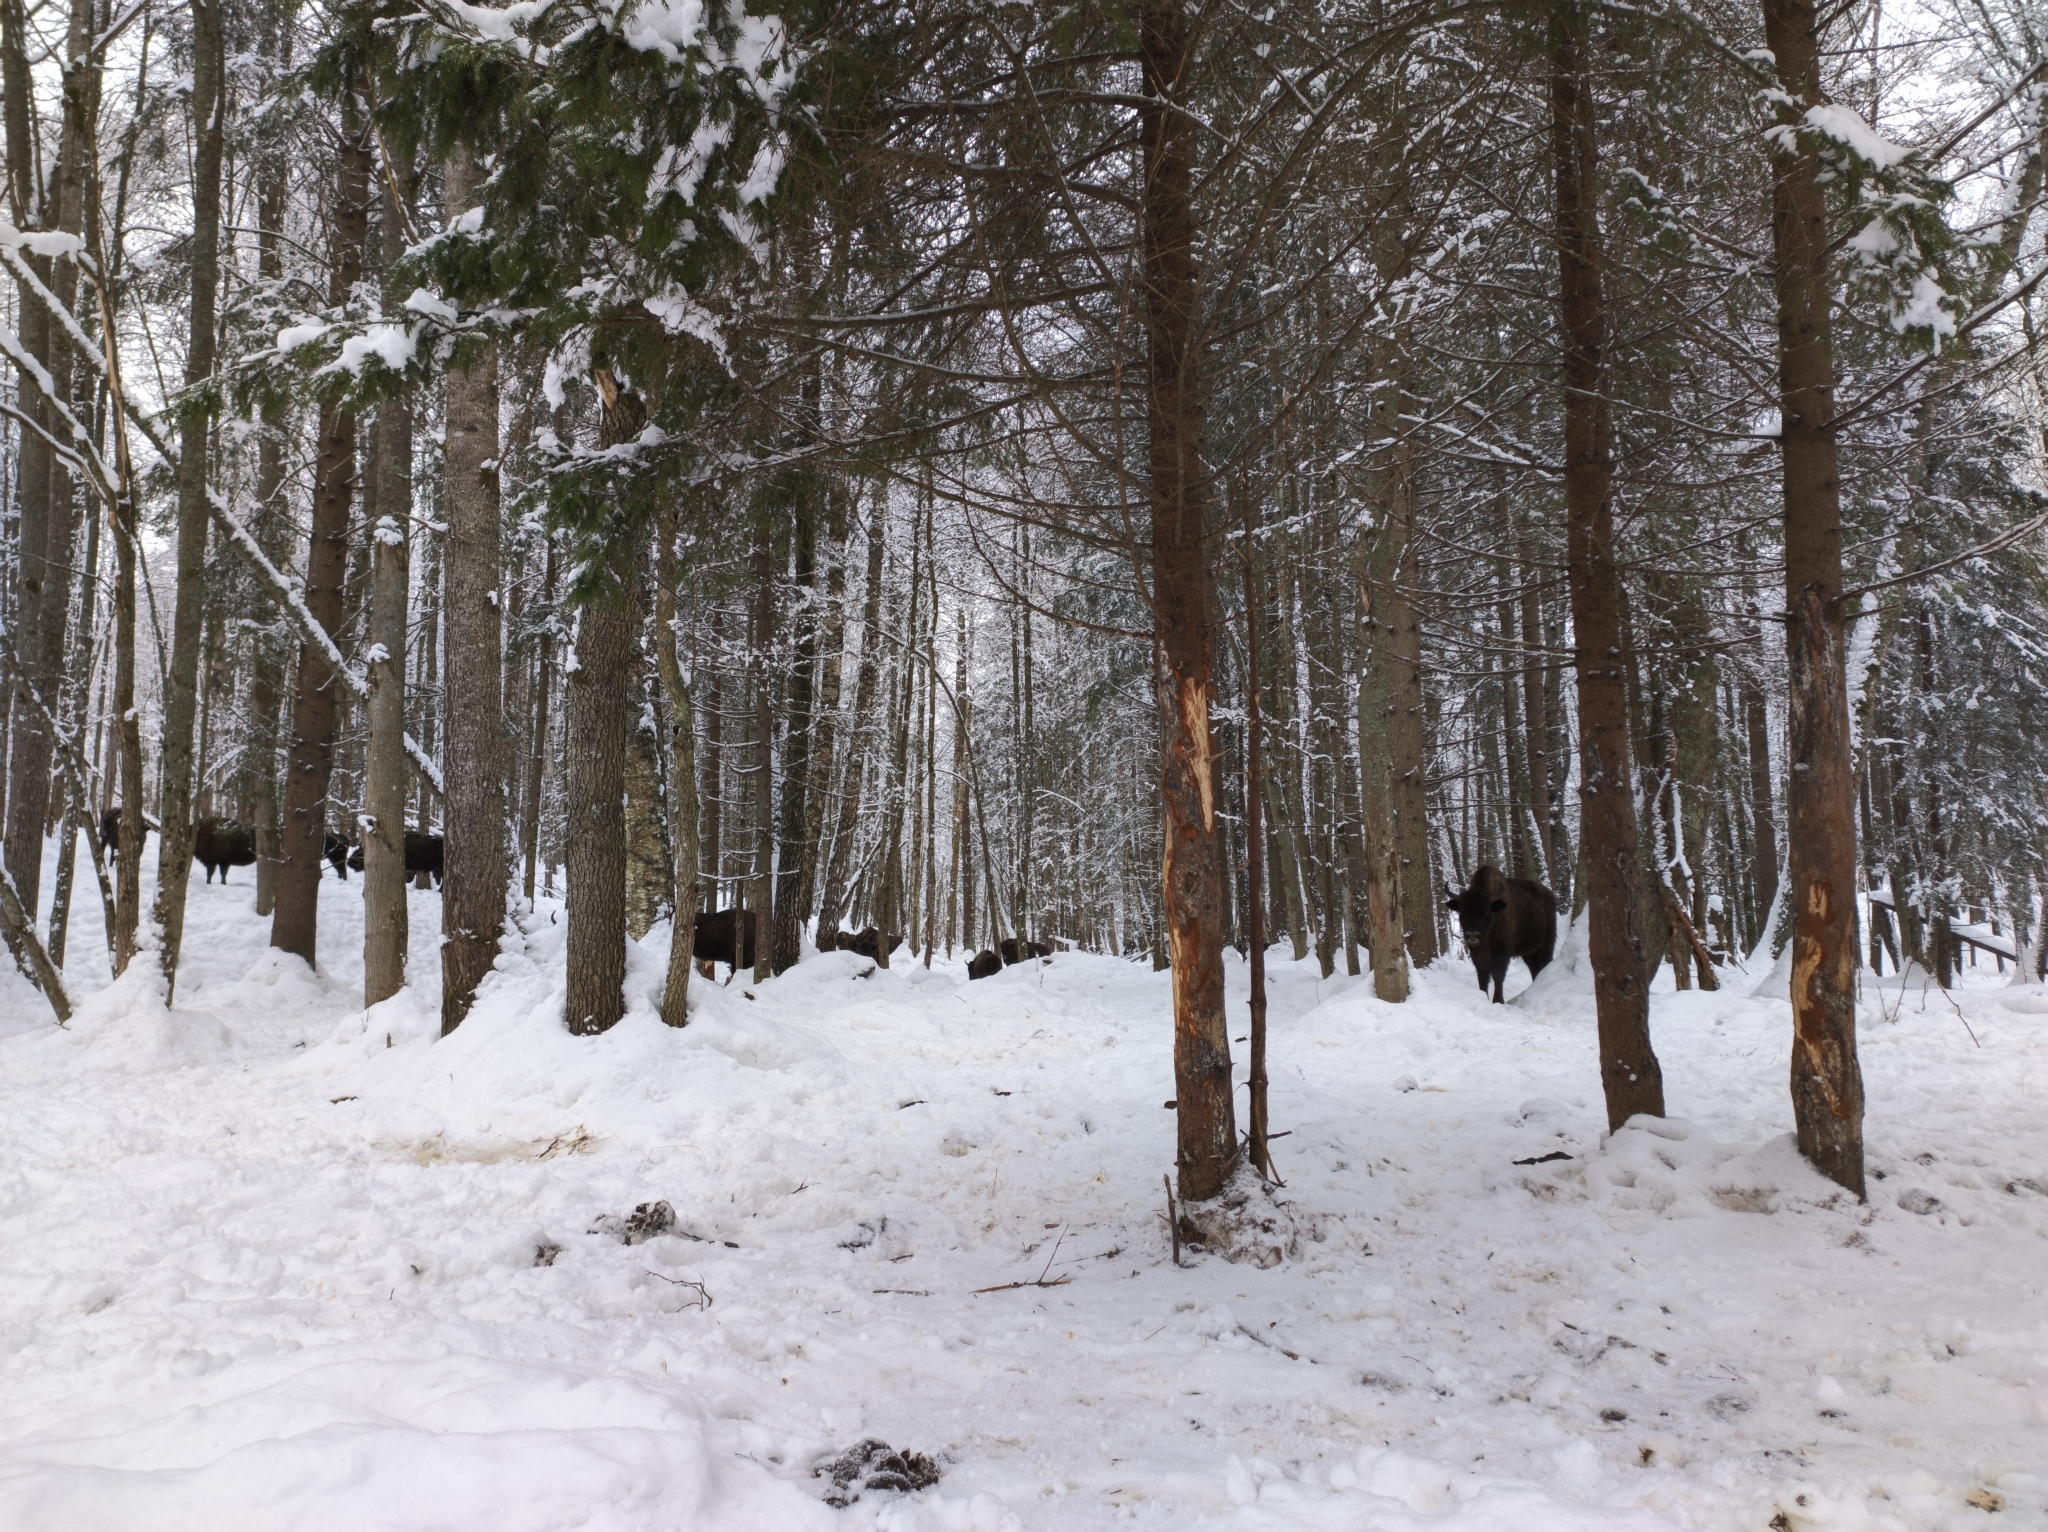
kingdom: Animalia
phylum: Chordata
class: Mammalia
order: Artiodactyla
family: Bovidae
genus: Bison
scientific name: Bison bonasus
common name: European bison
